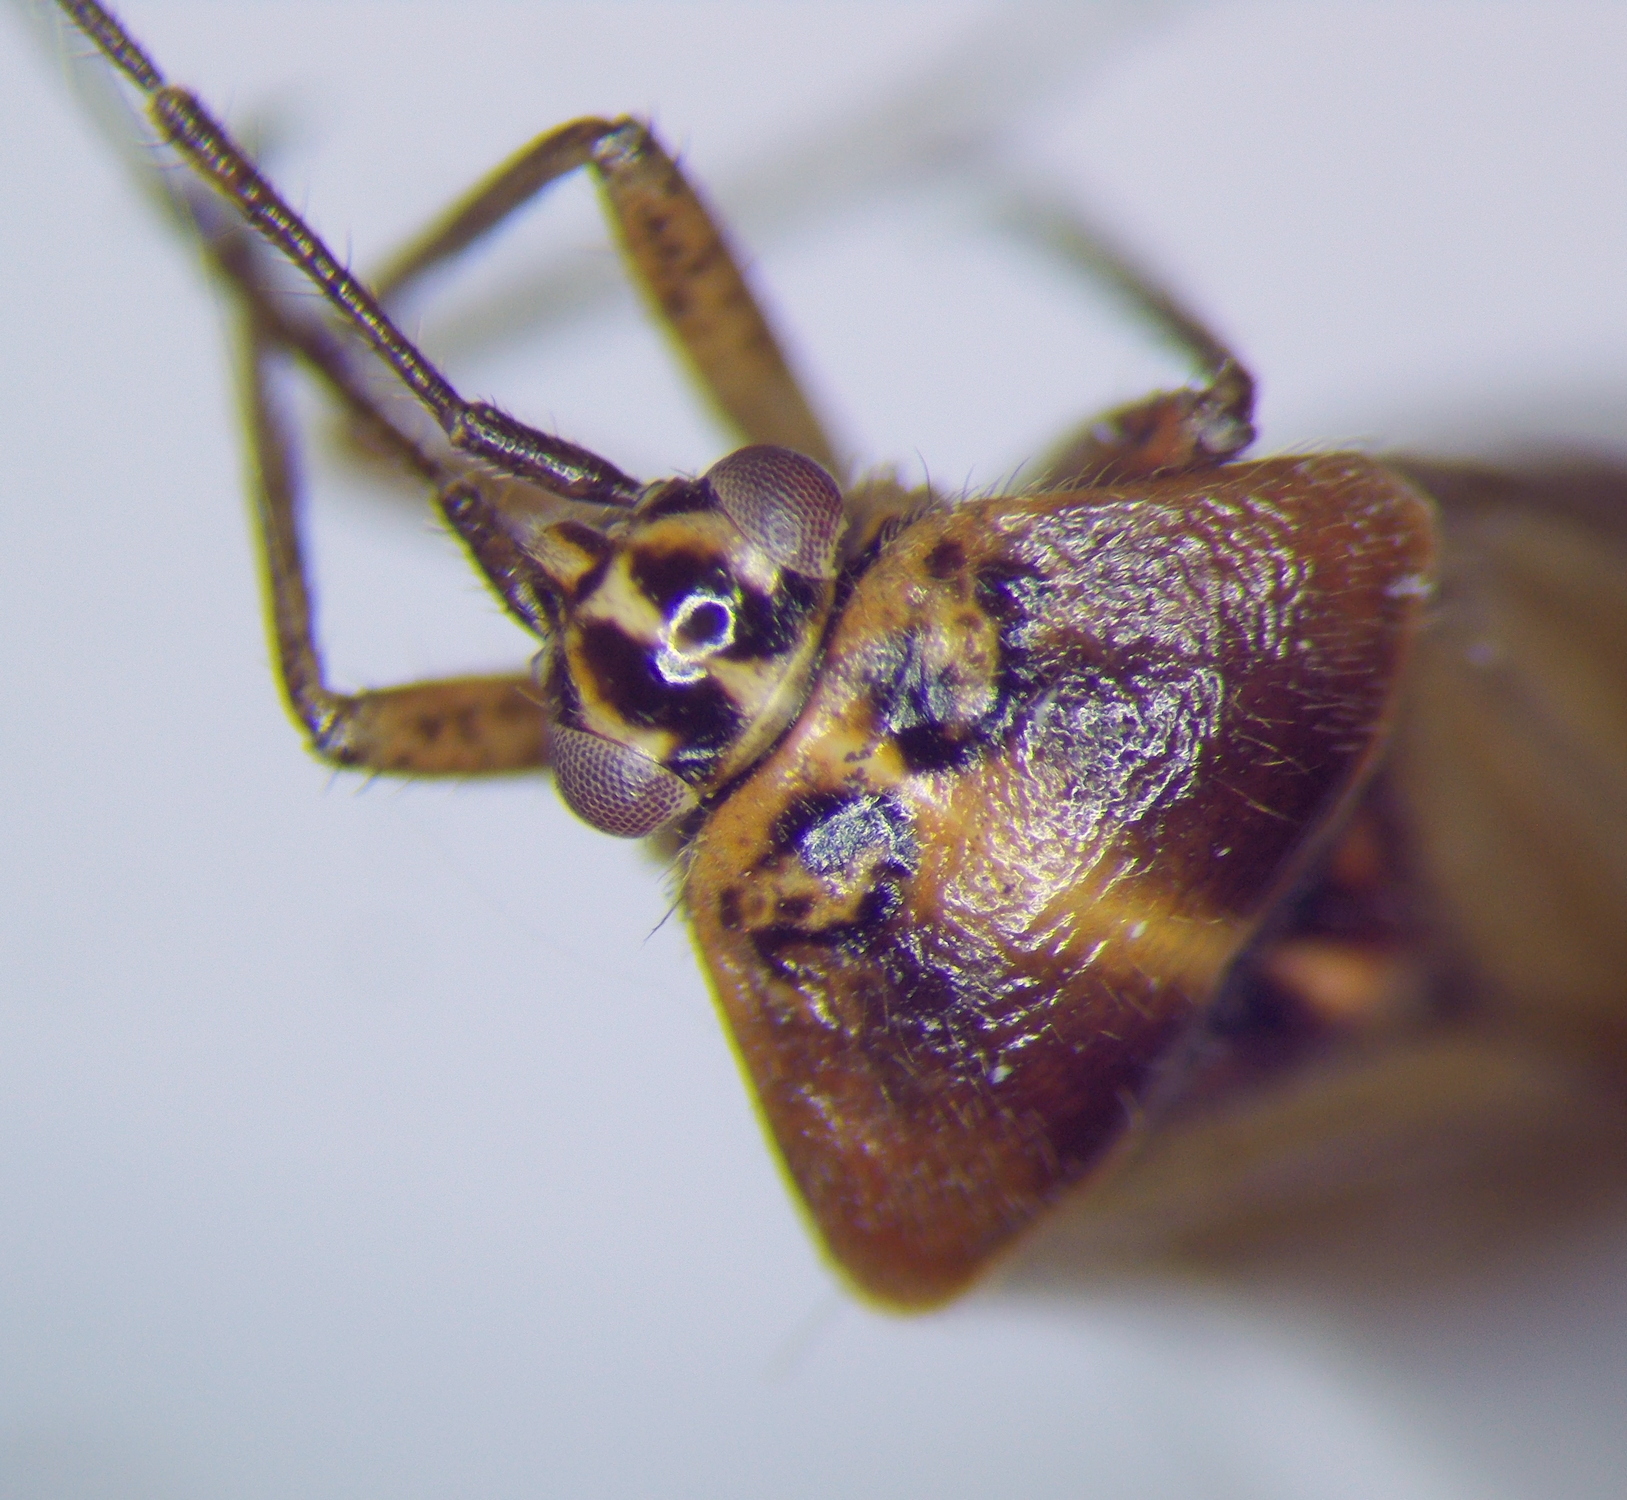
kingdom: Animalia
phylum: Arthropoda
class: Insecta
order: Hemiptera
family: Miridae
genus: Harpocera
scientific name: Harpocera thoracica
